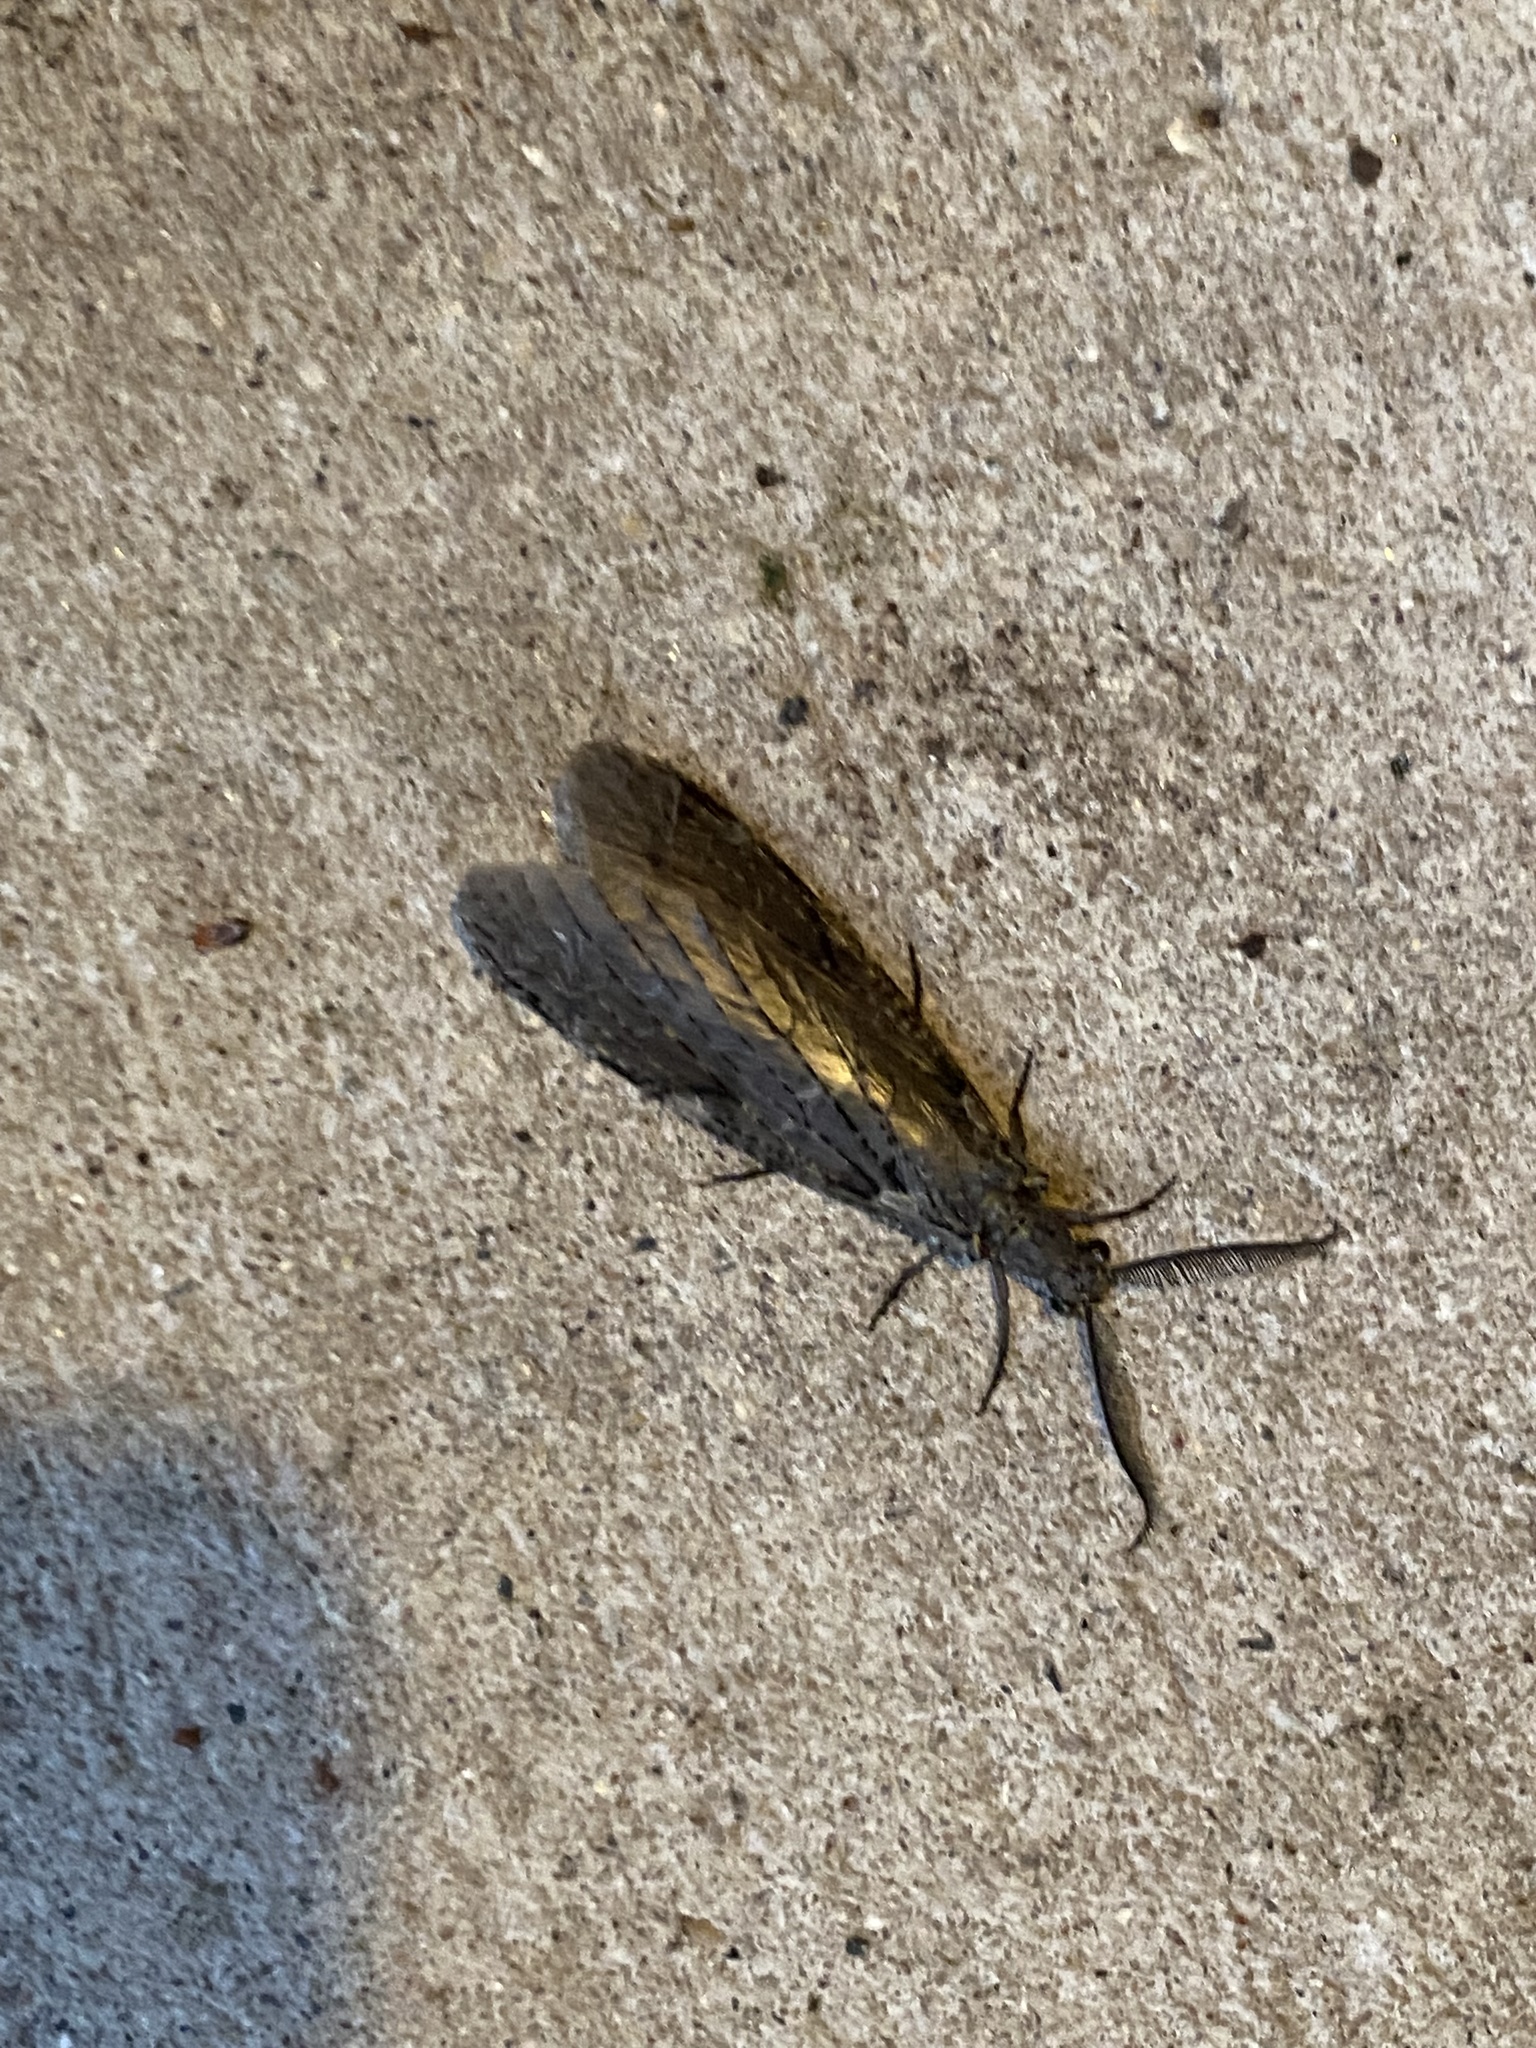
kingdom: Animalia
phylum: Arthropoda
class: Insecta
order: Megaloptera
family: Corydalidae
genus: Chauliodes
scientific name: Chauliodes rastricornis
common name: Spring fishfly
